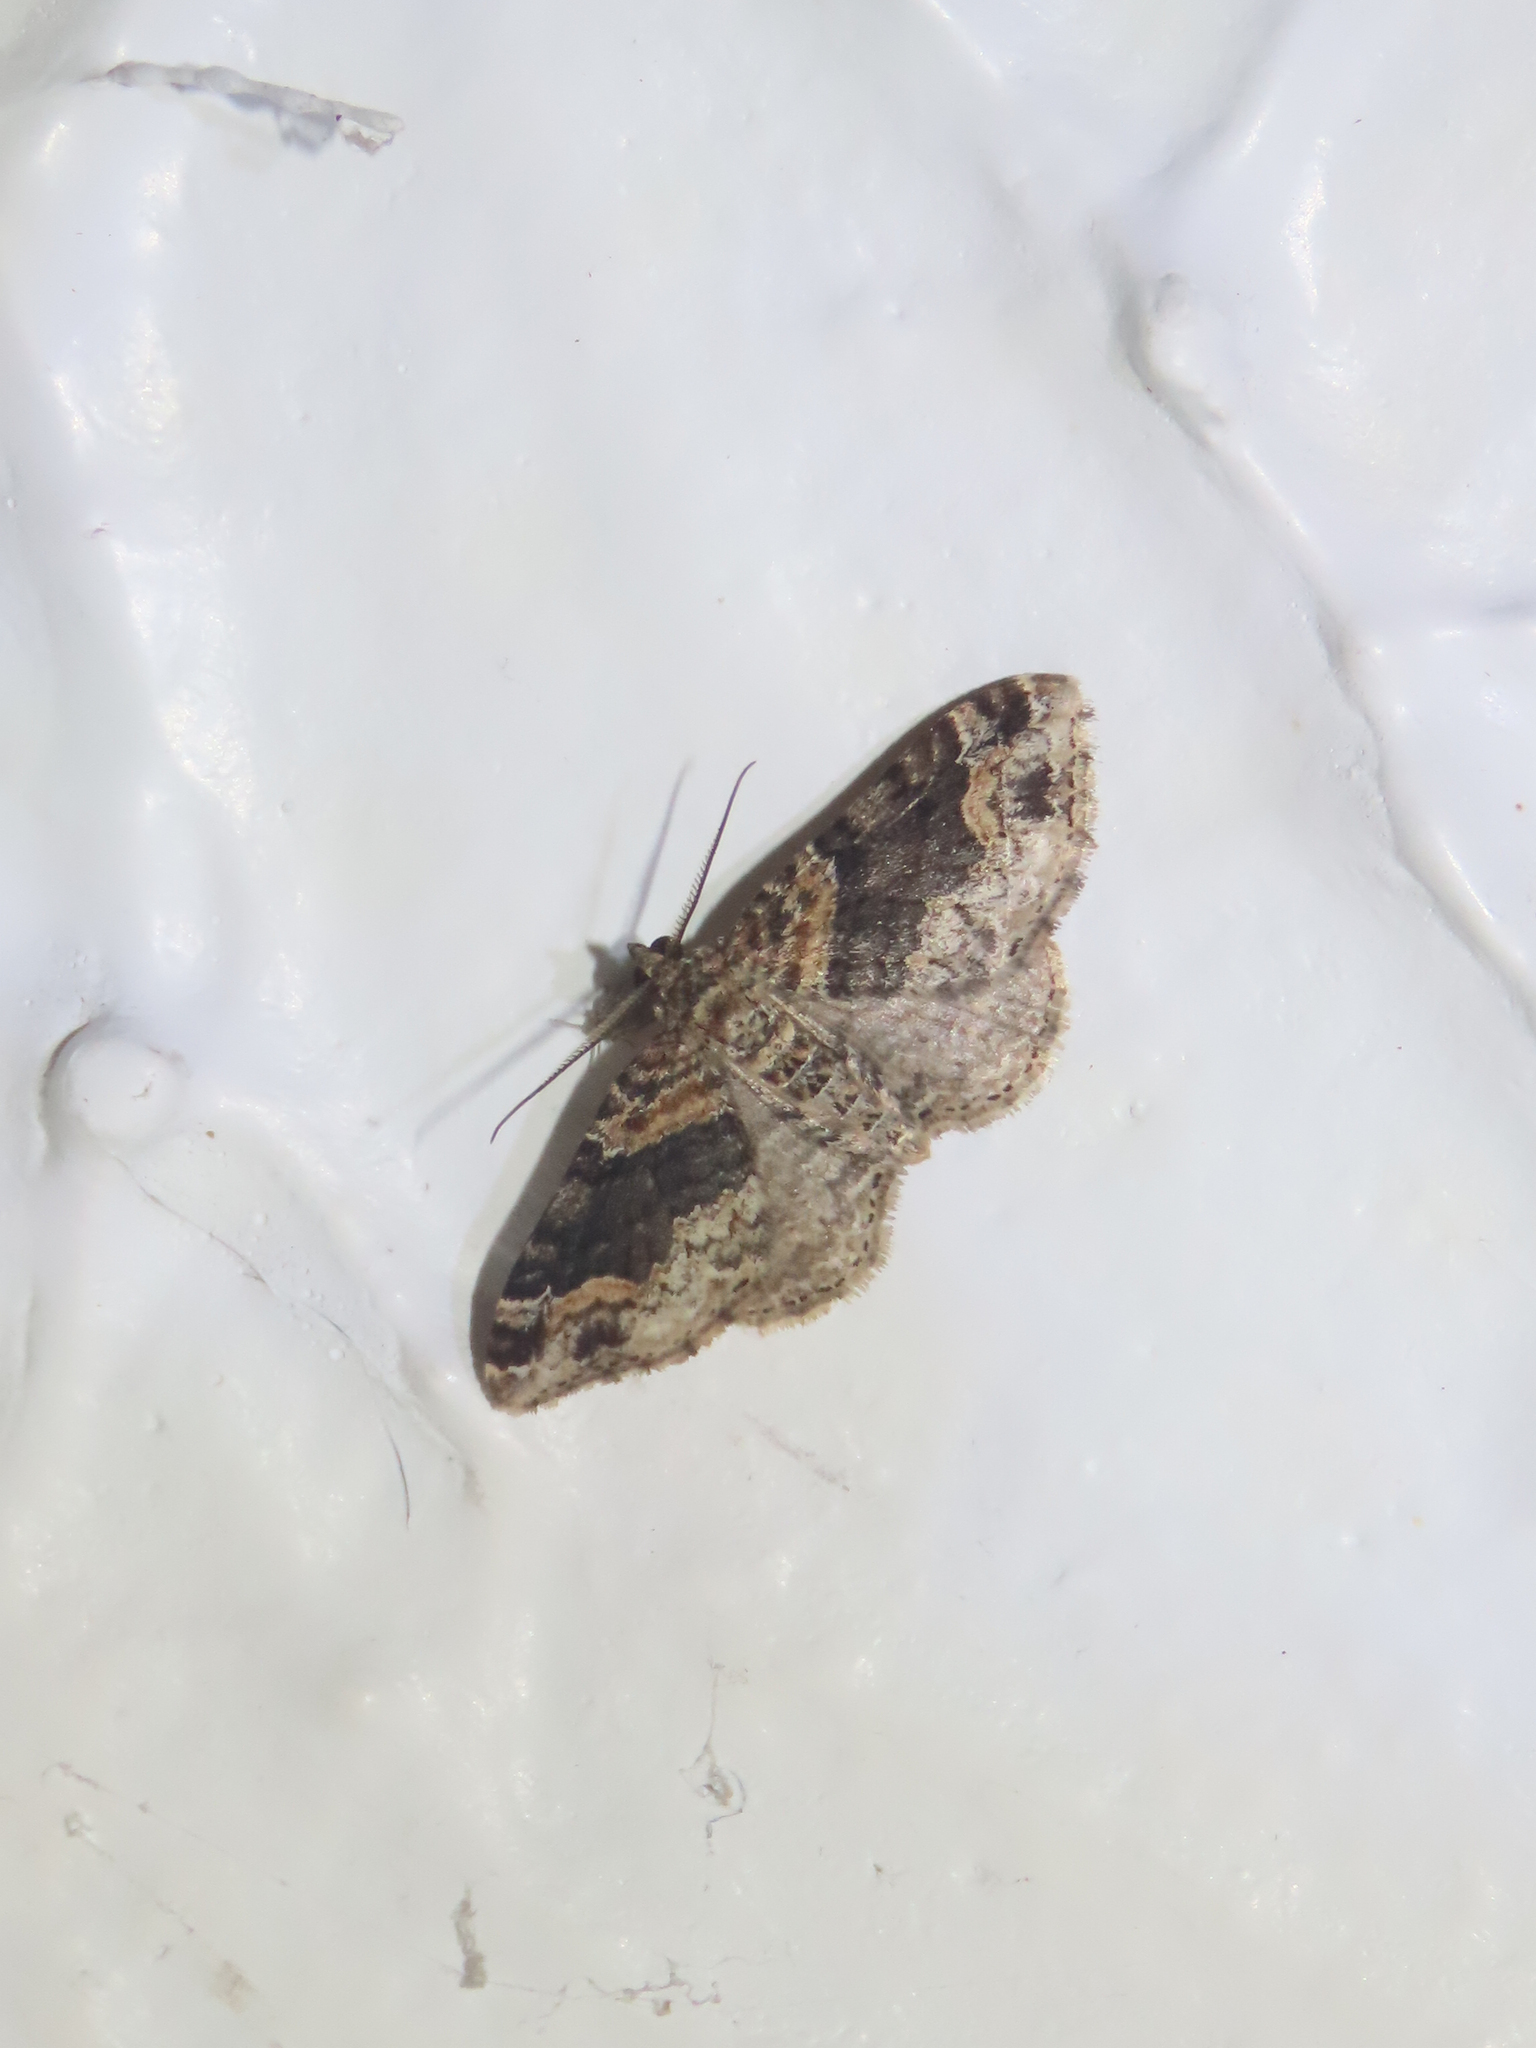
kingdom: Animalia
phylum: Arthropoda
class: Insecta
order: Lepidoptera
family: Geometridae
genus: Xanthorhoe
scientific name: Xanthorhoe ferrugata
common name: Dark-barred twin-spot carpet
